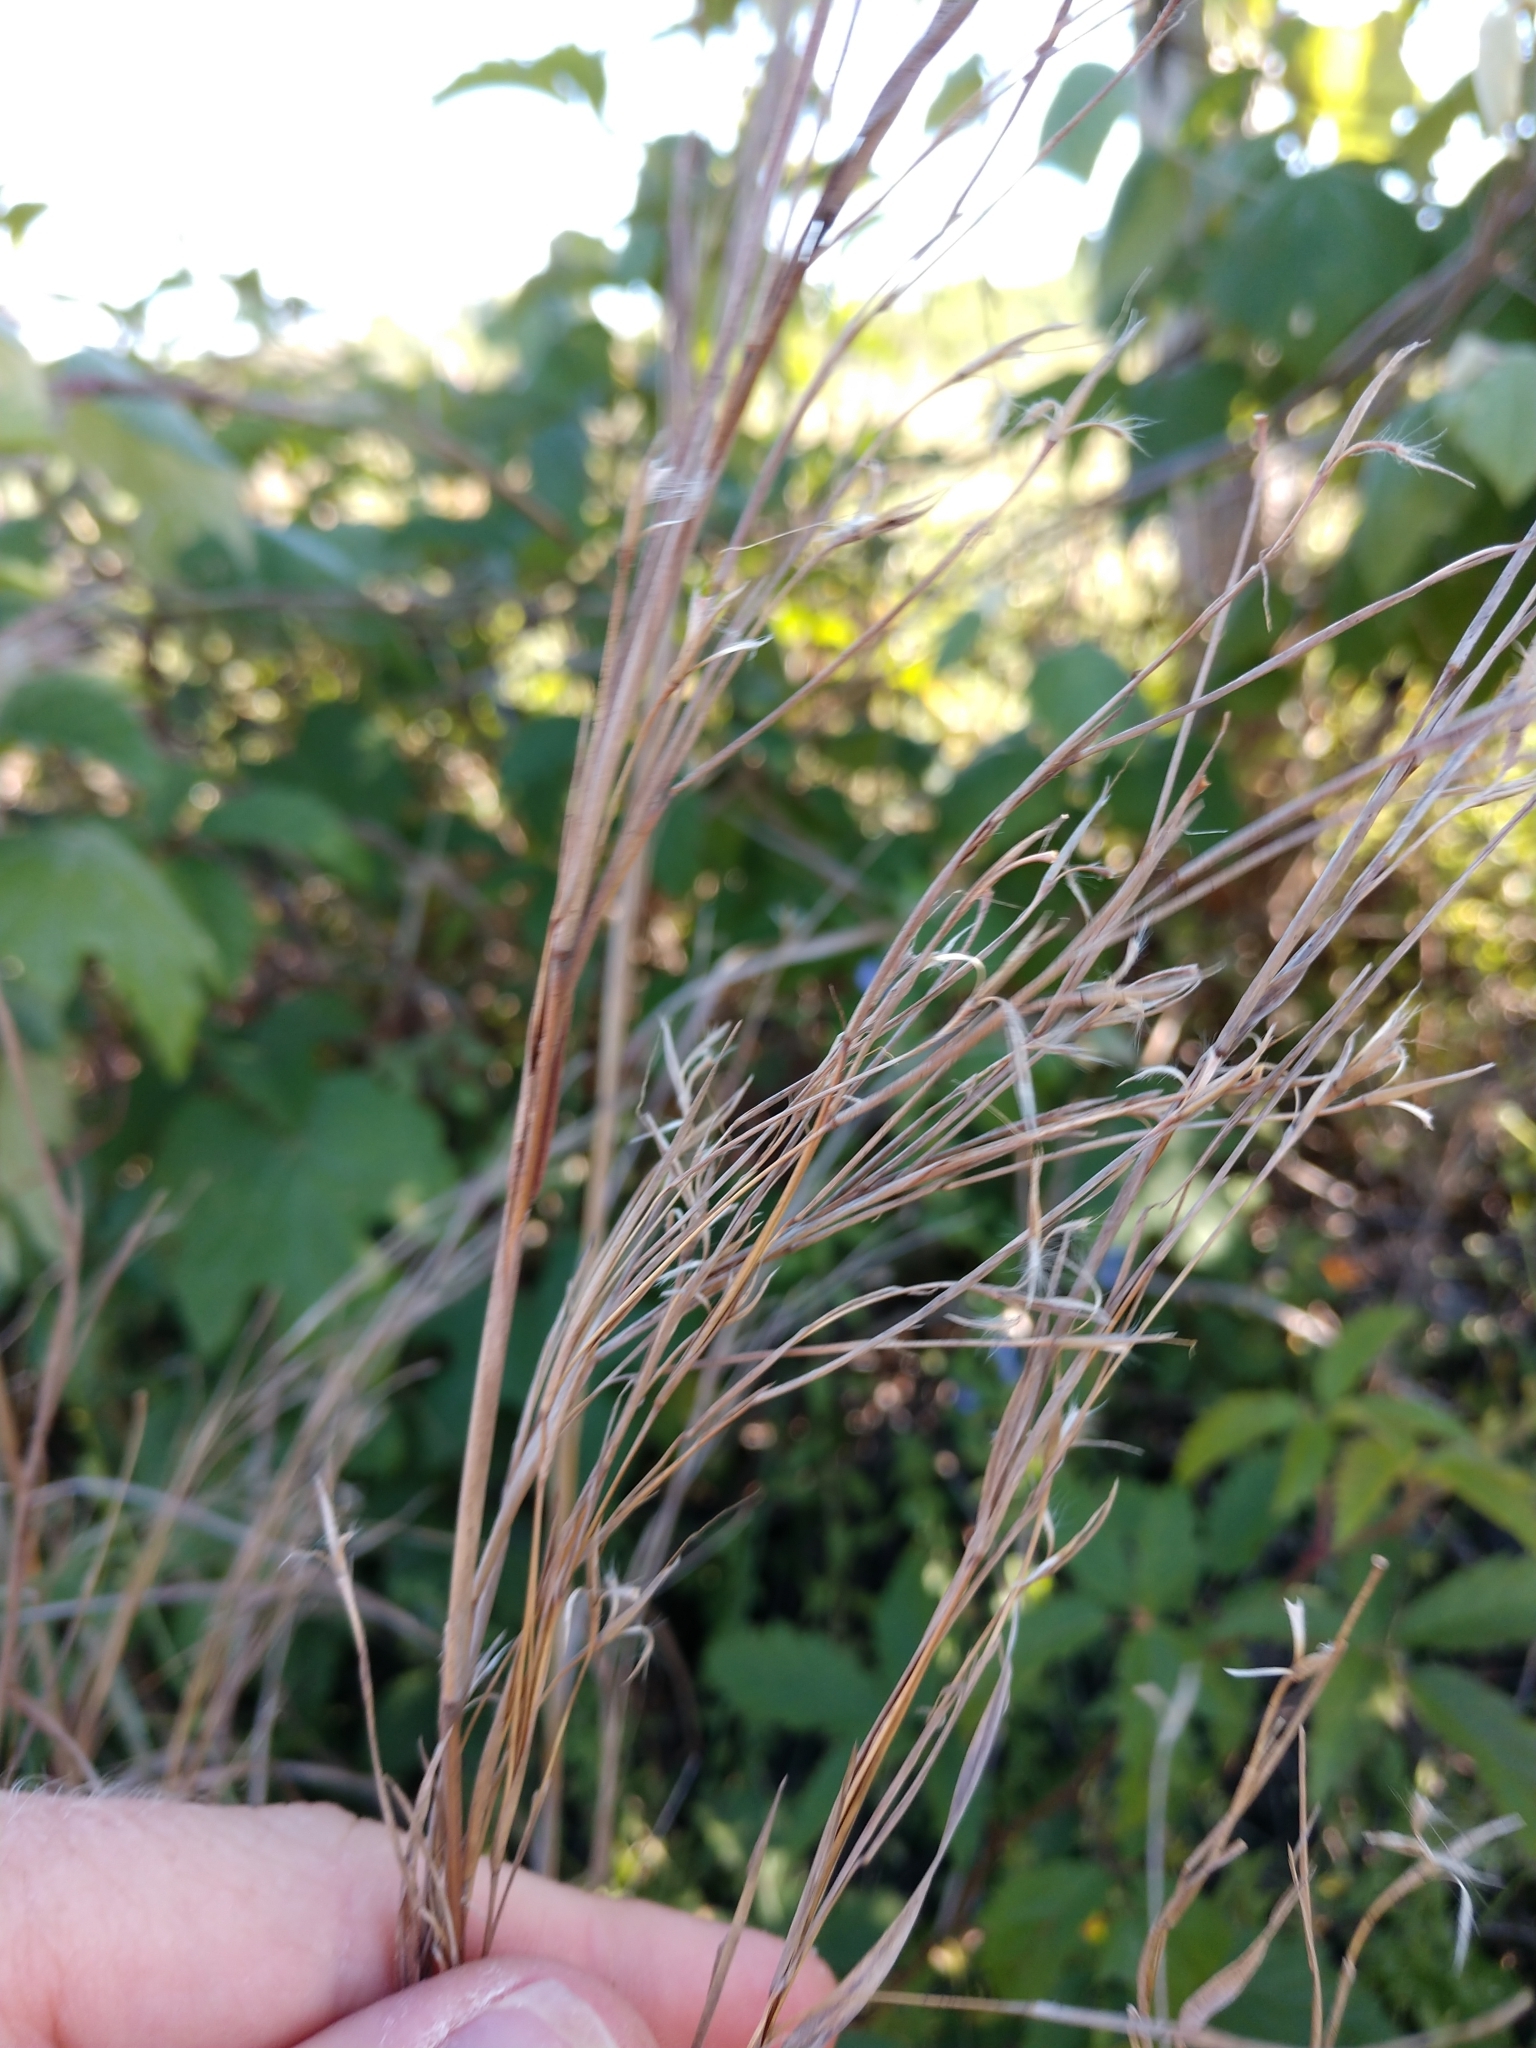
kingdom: Plantae
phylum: Tracheophyta
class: Liliopsida
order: Poales
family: Poaceae
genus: Schizachyrium
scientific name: Schizachyrium scoparium
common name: Little bluestem
